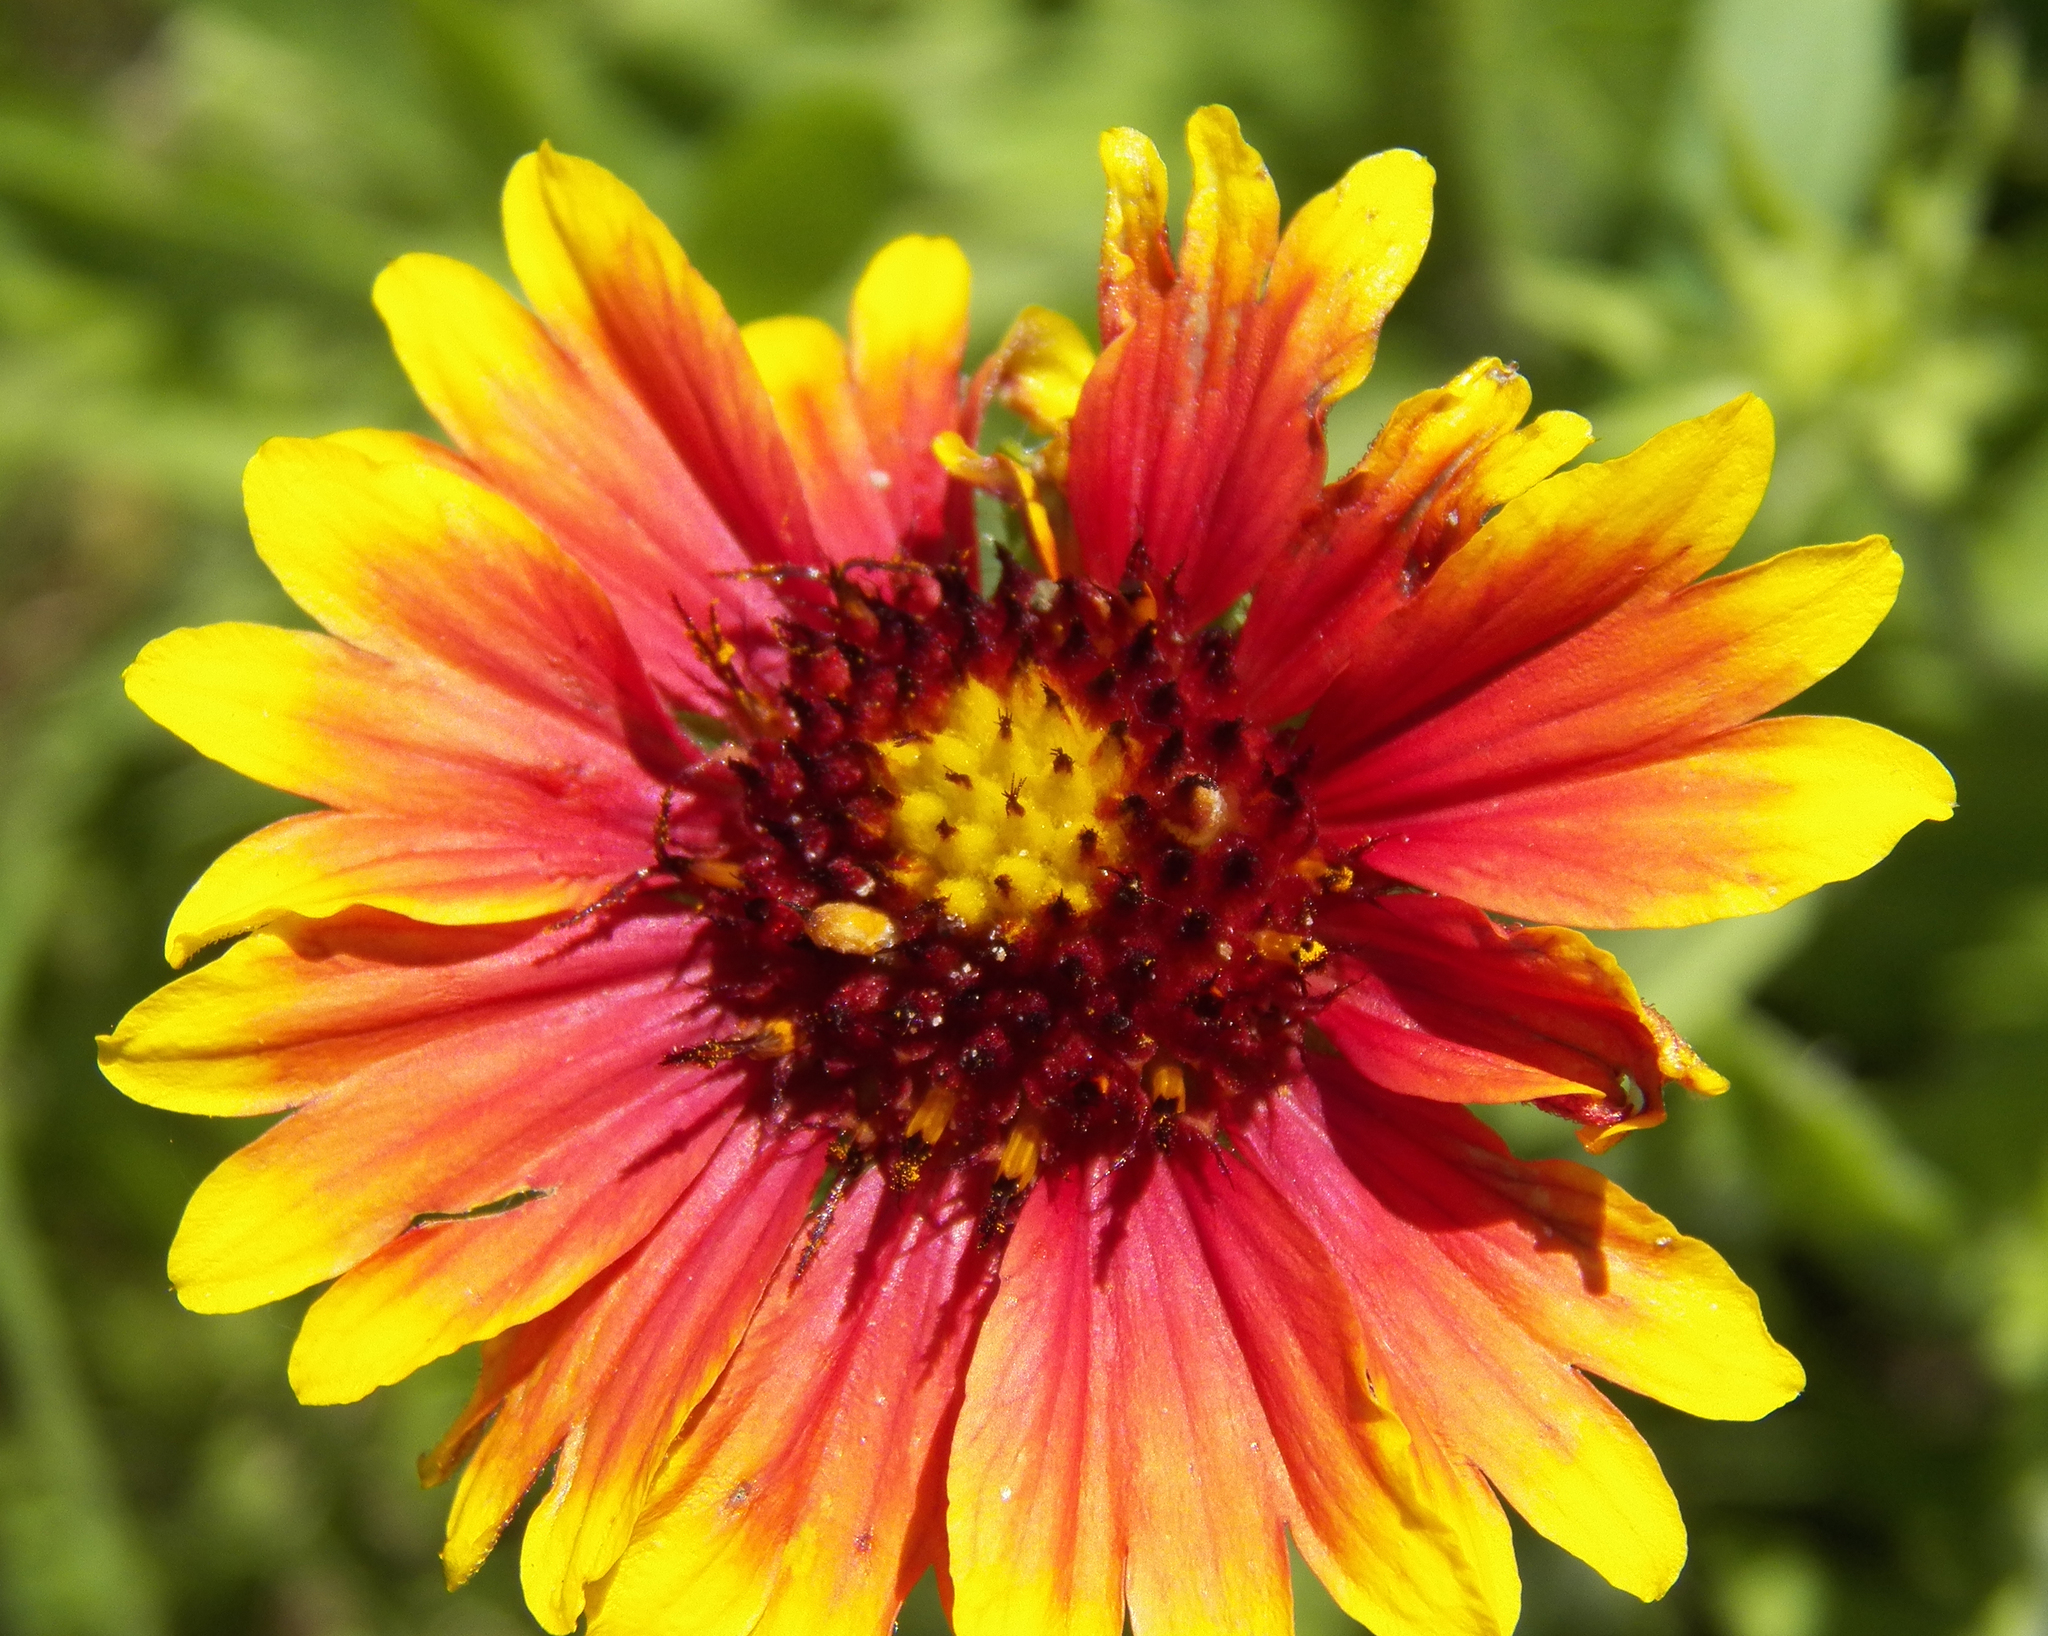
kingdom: Plantae
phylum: Tracheophyta
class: Magnoliopsida
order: Asterales
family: Asteraceae
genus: Gaillardia
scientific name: Gaillardia pulchella
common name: Firewheel
